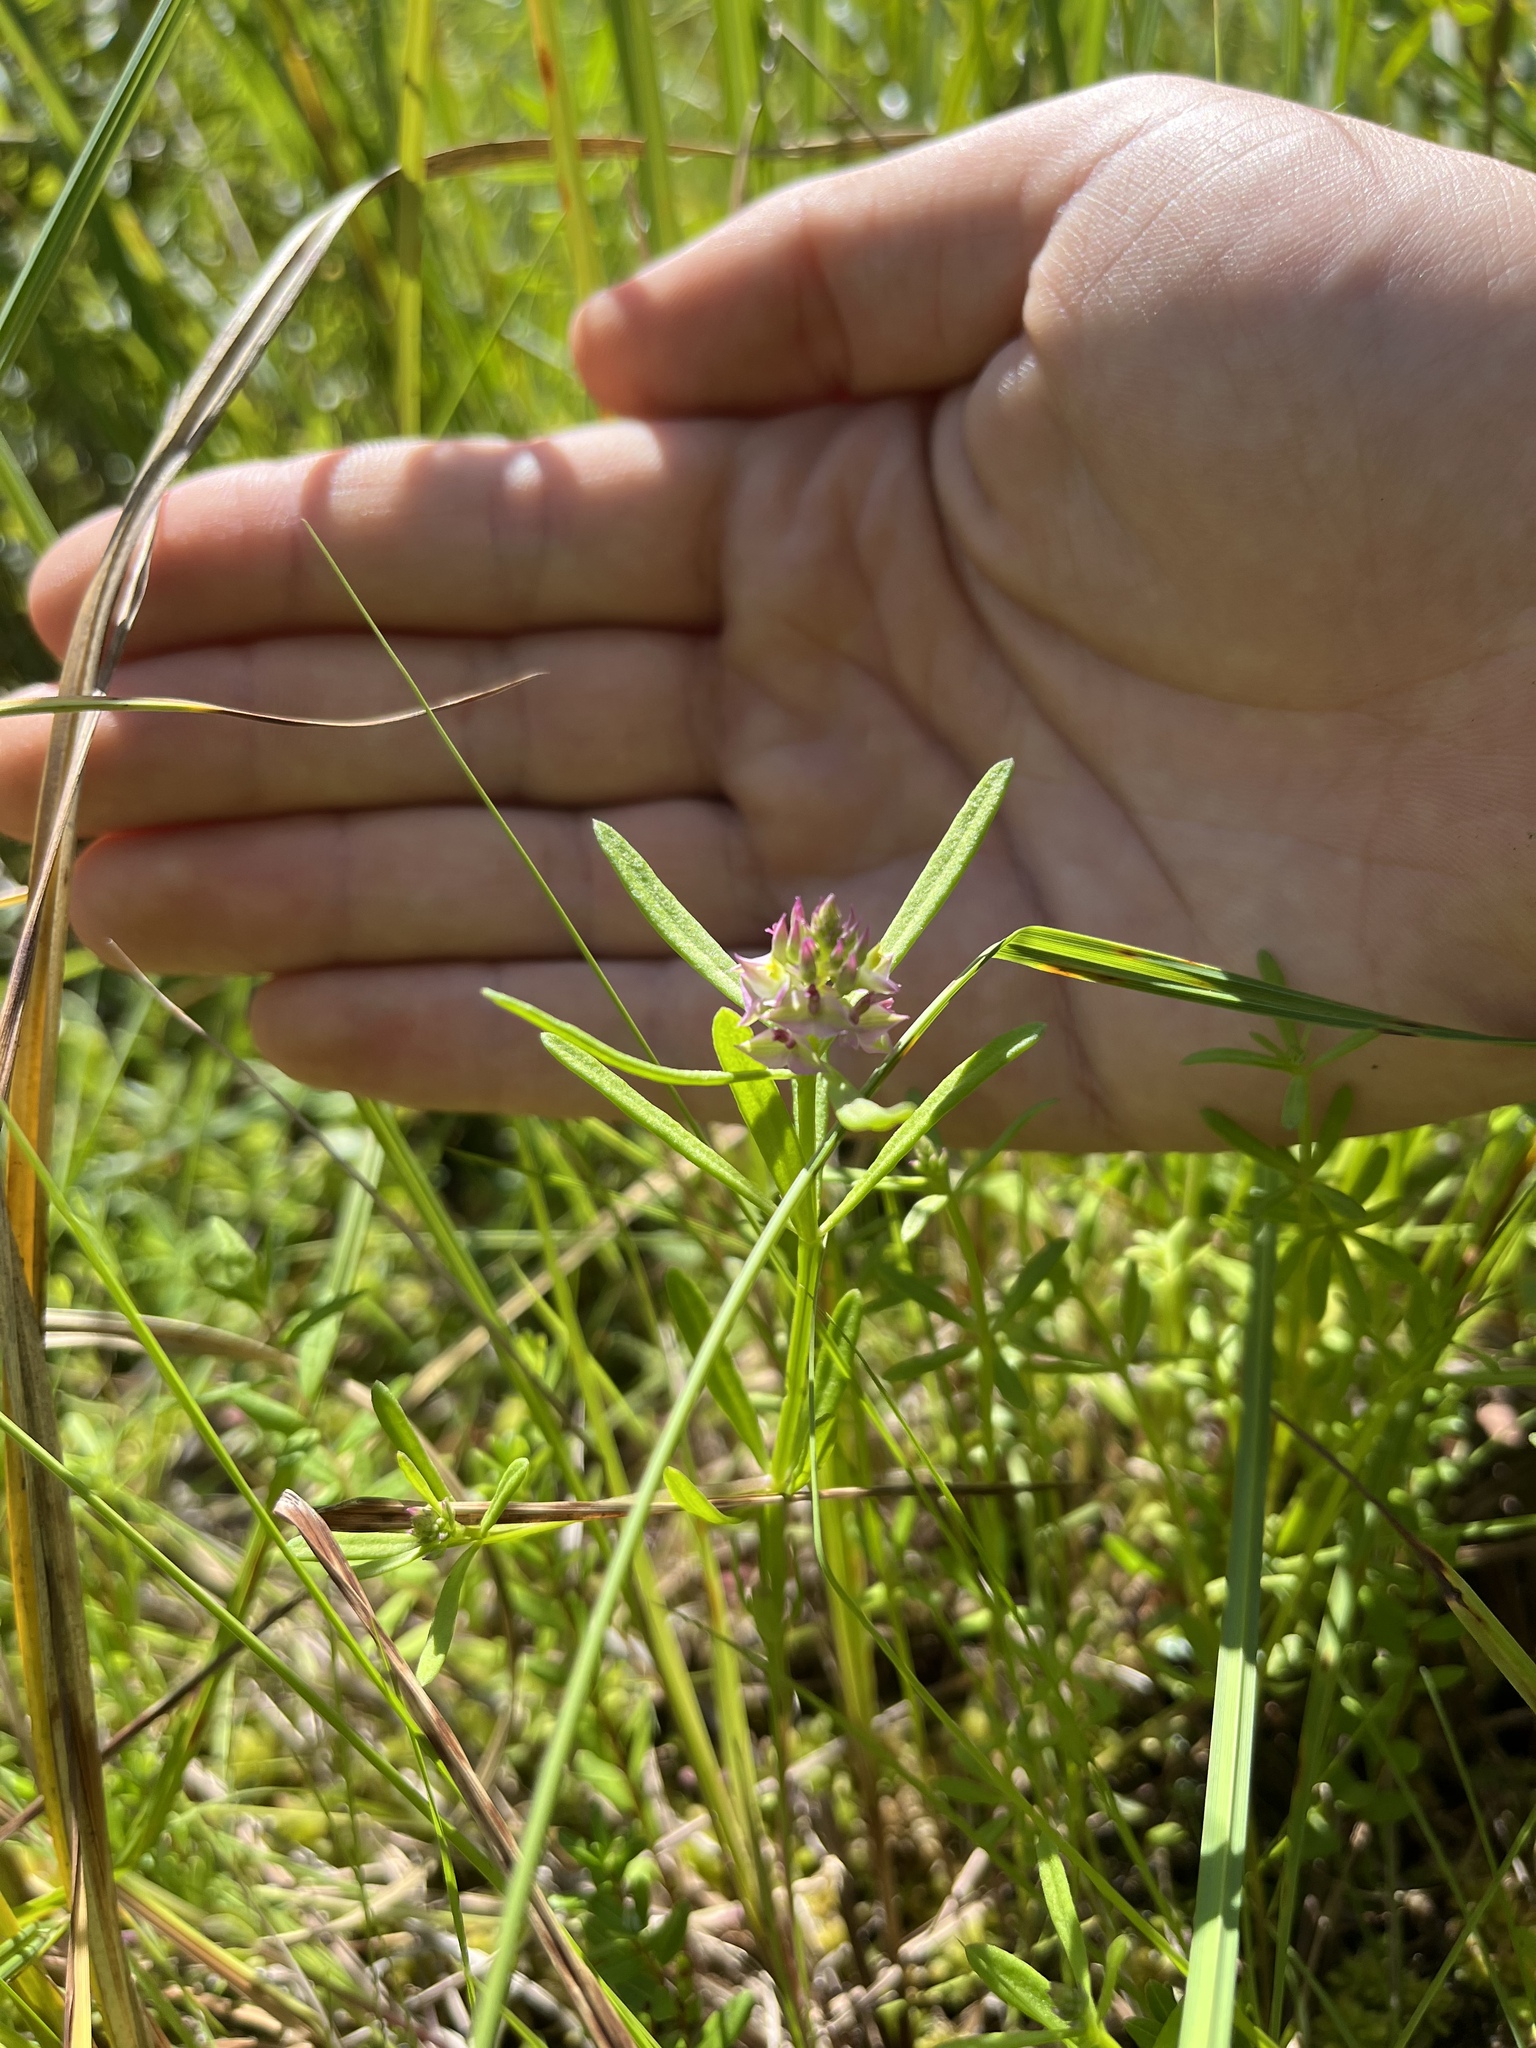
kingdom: Plantae
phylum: Tracheophyta
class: Magnoliopsida
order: Fabales
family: Polygalaceae
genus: Polygala
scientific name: Polygala cruciata
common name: Drumheads
